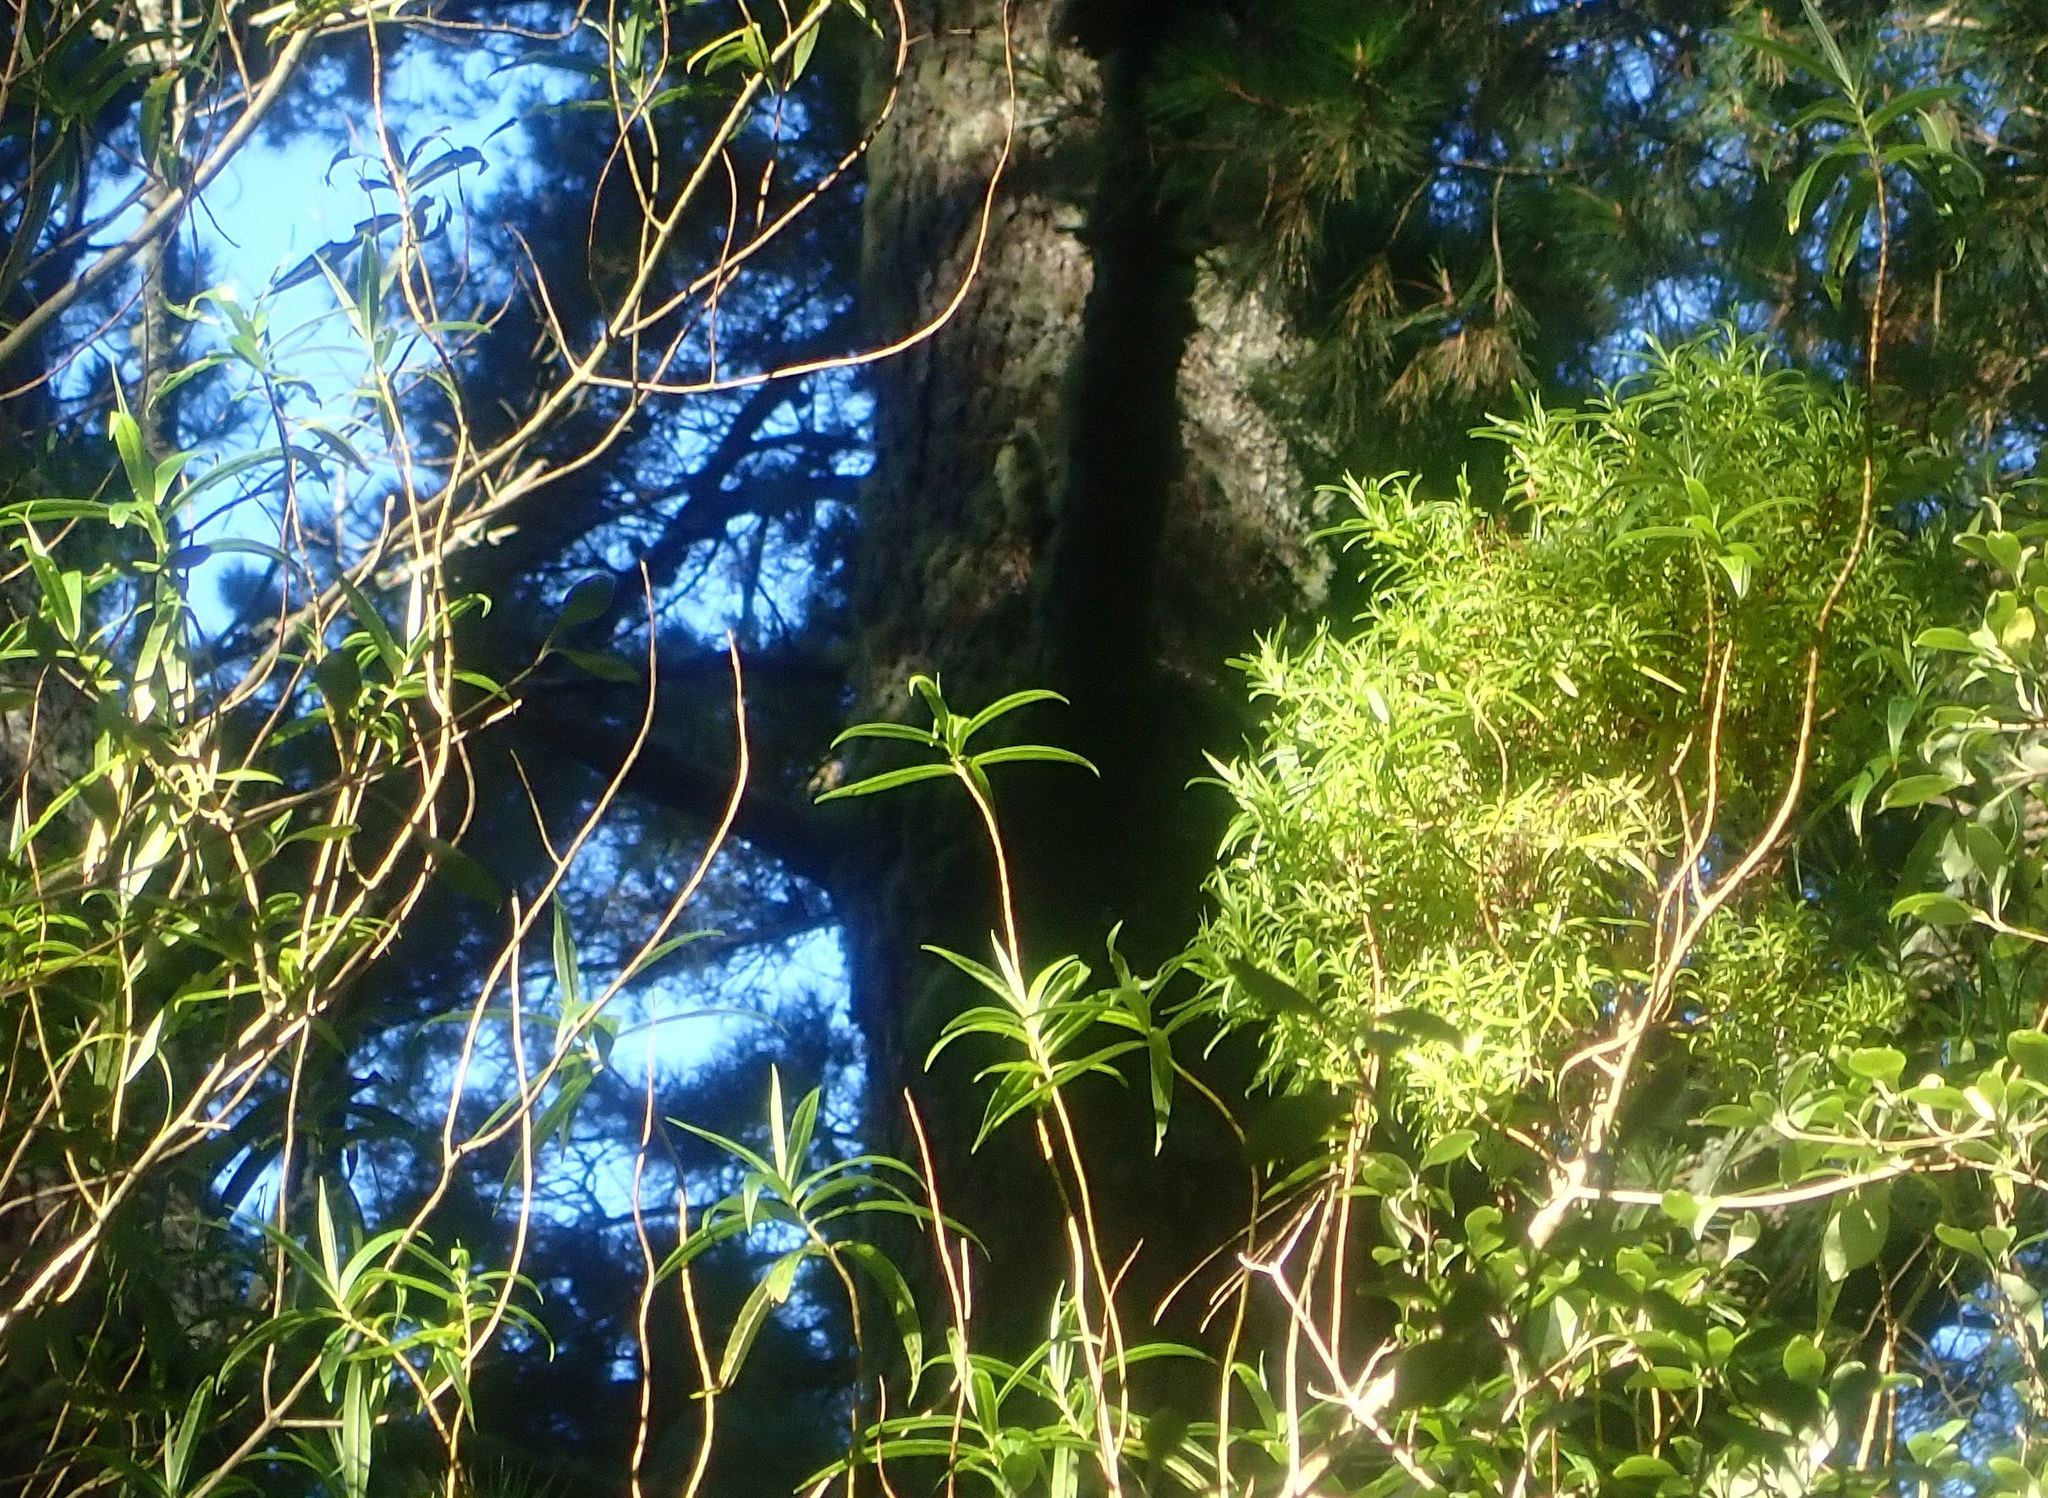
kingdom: Plantae
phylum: Tracheophyta
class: Magnoliopsida
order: Lamiales
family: Plantaginaceae
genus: Veronica
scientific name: Veronica salicifolia
